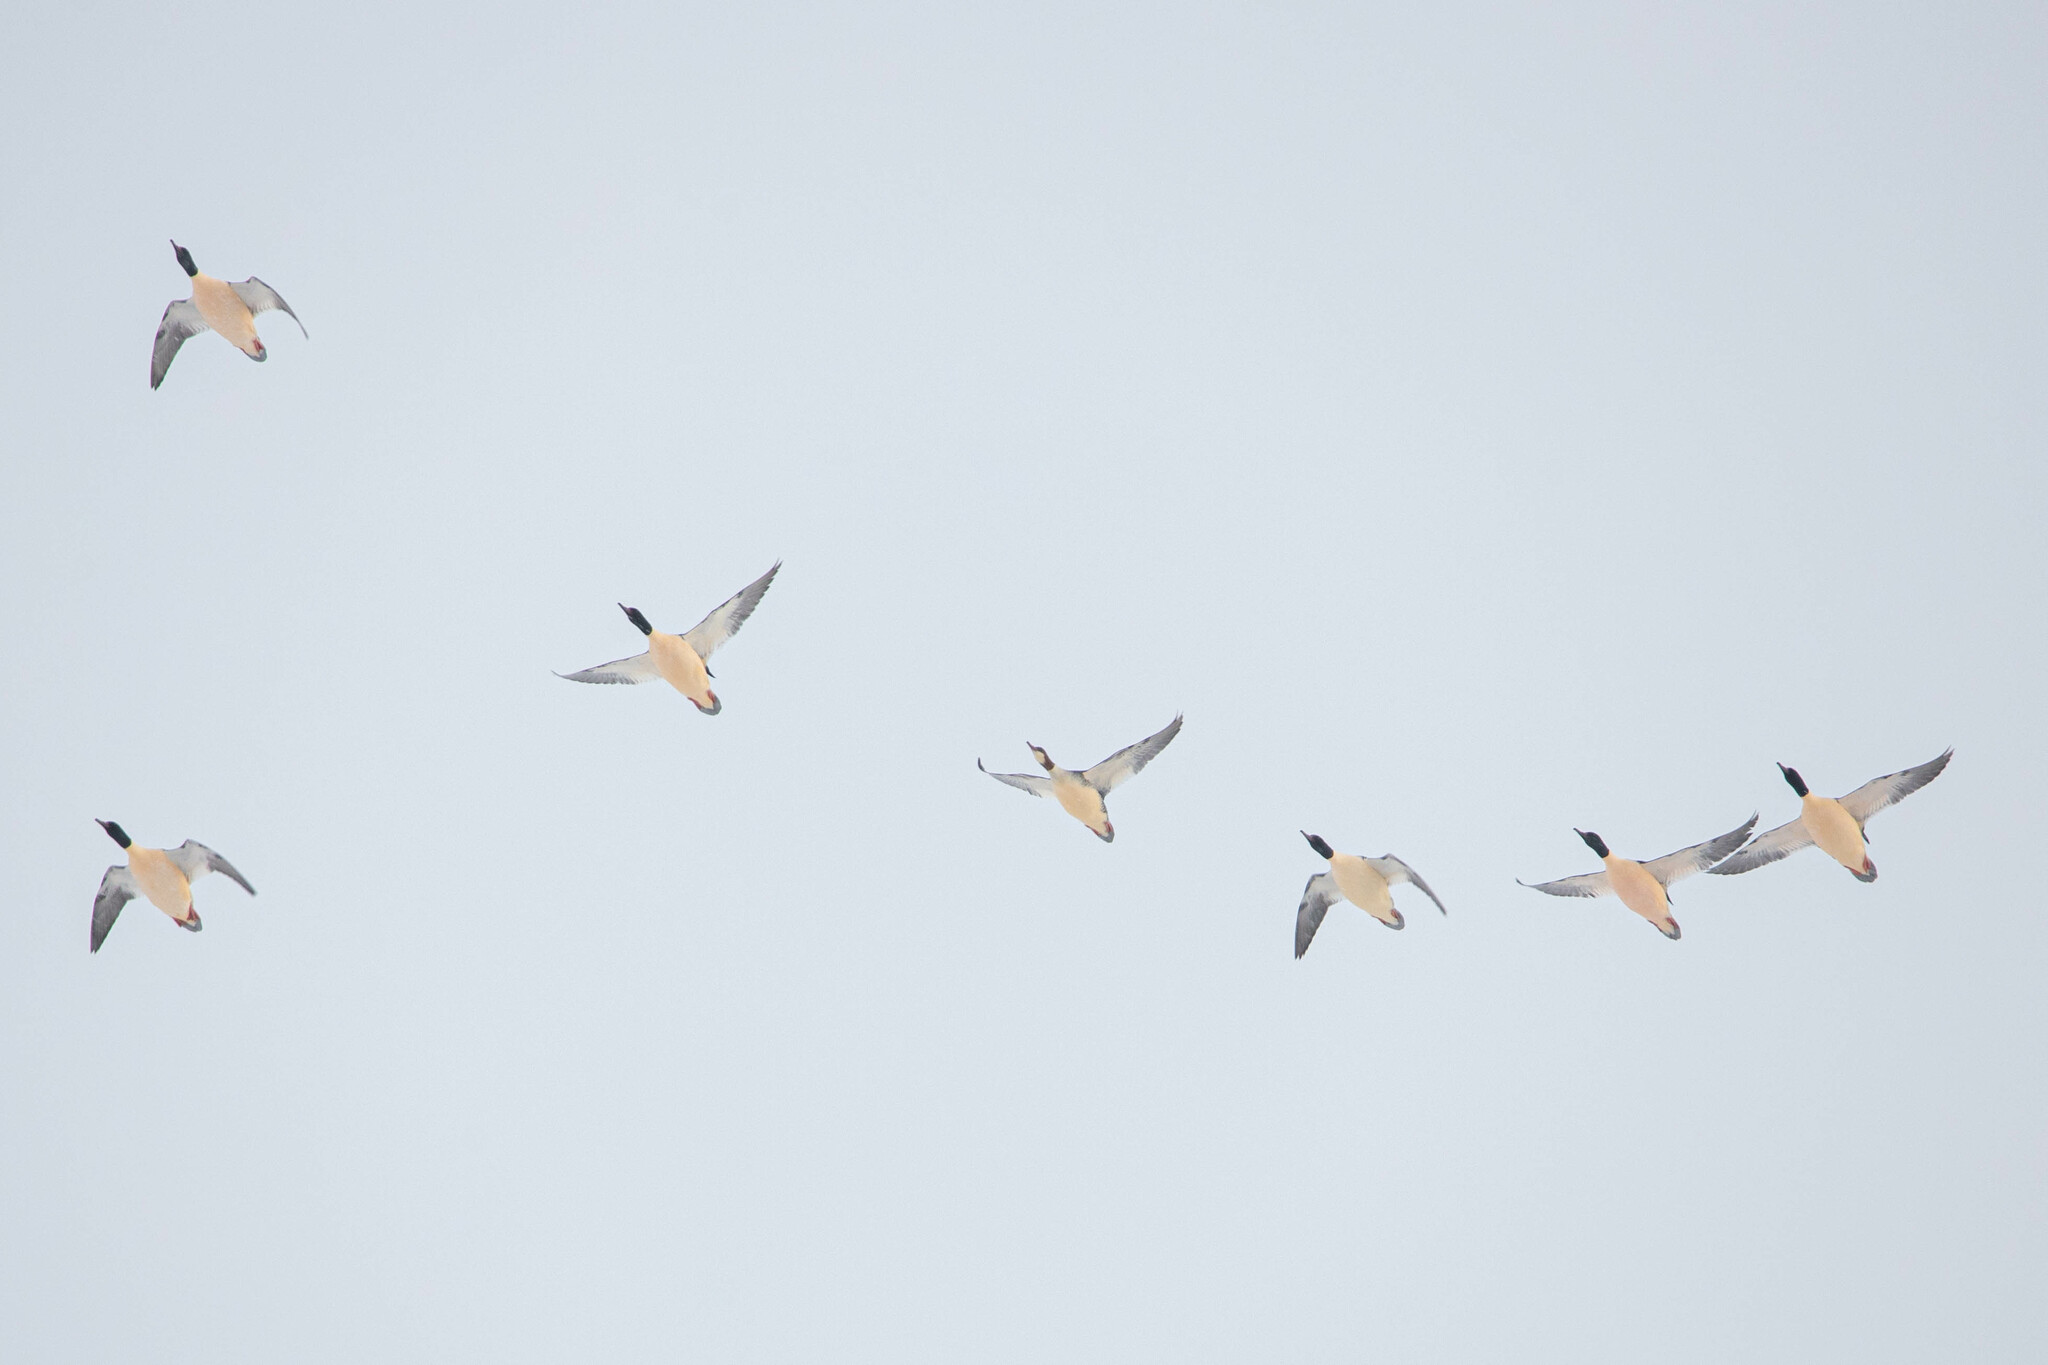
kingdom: Animalia
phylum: Chordata
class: Aves
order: Anseriformes
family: Anatidae
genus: Mergus
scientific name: Mergus merganser
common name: Common merganser
